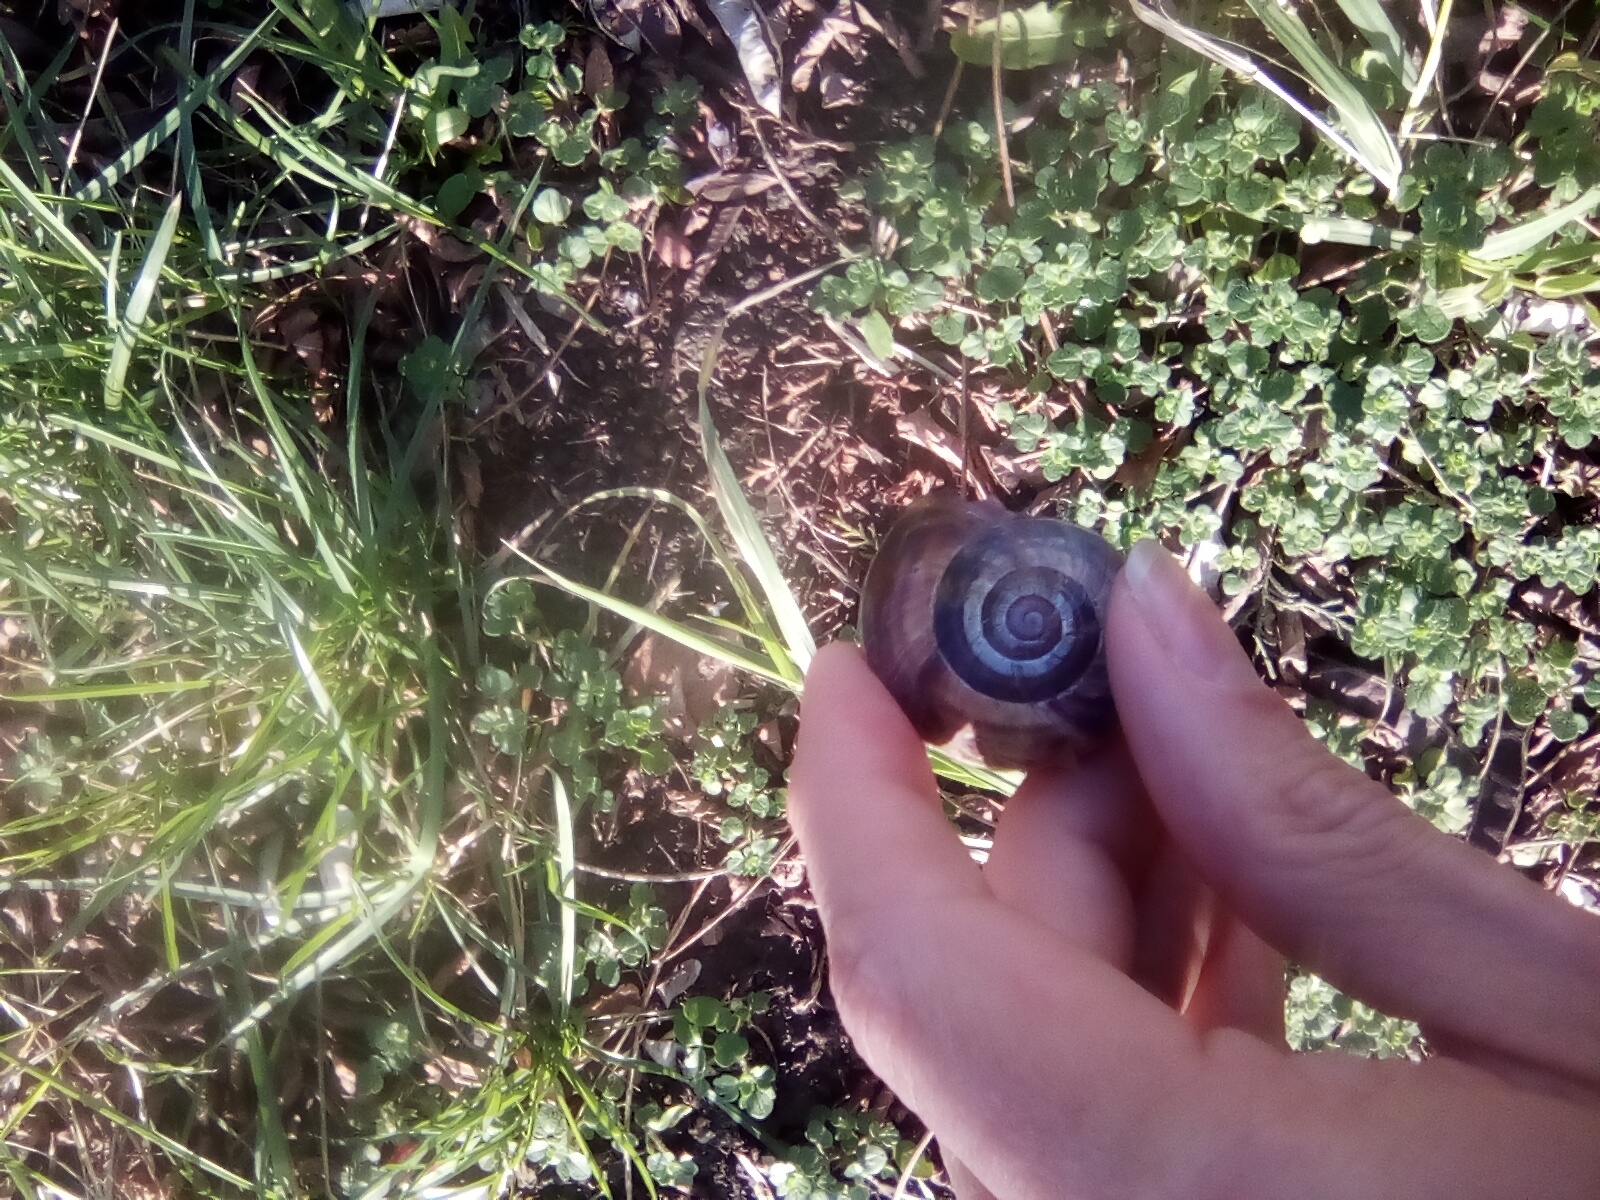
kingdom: Animalia
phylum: Mollusca
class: Gastropoda
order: Stylommatophora
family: Helicidae
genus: Helix
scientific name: Helix lucorum
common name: Turkish snail
